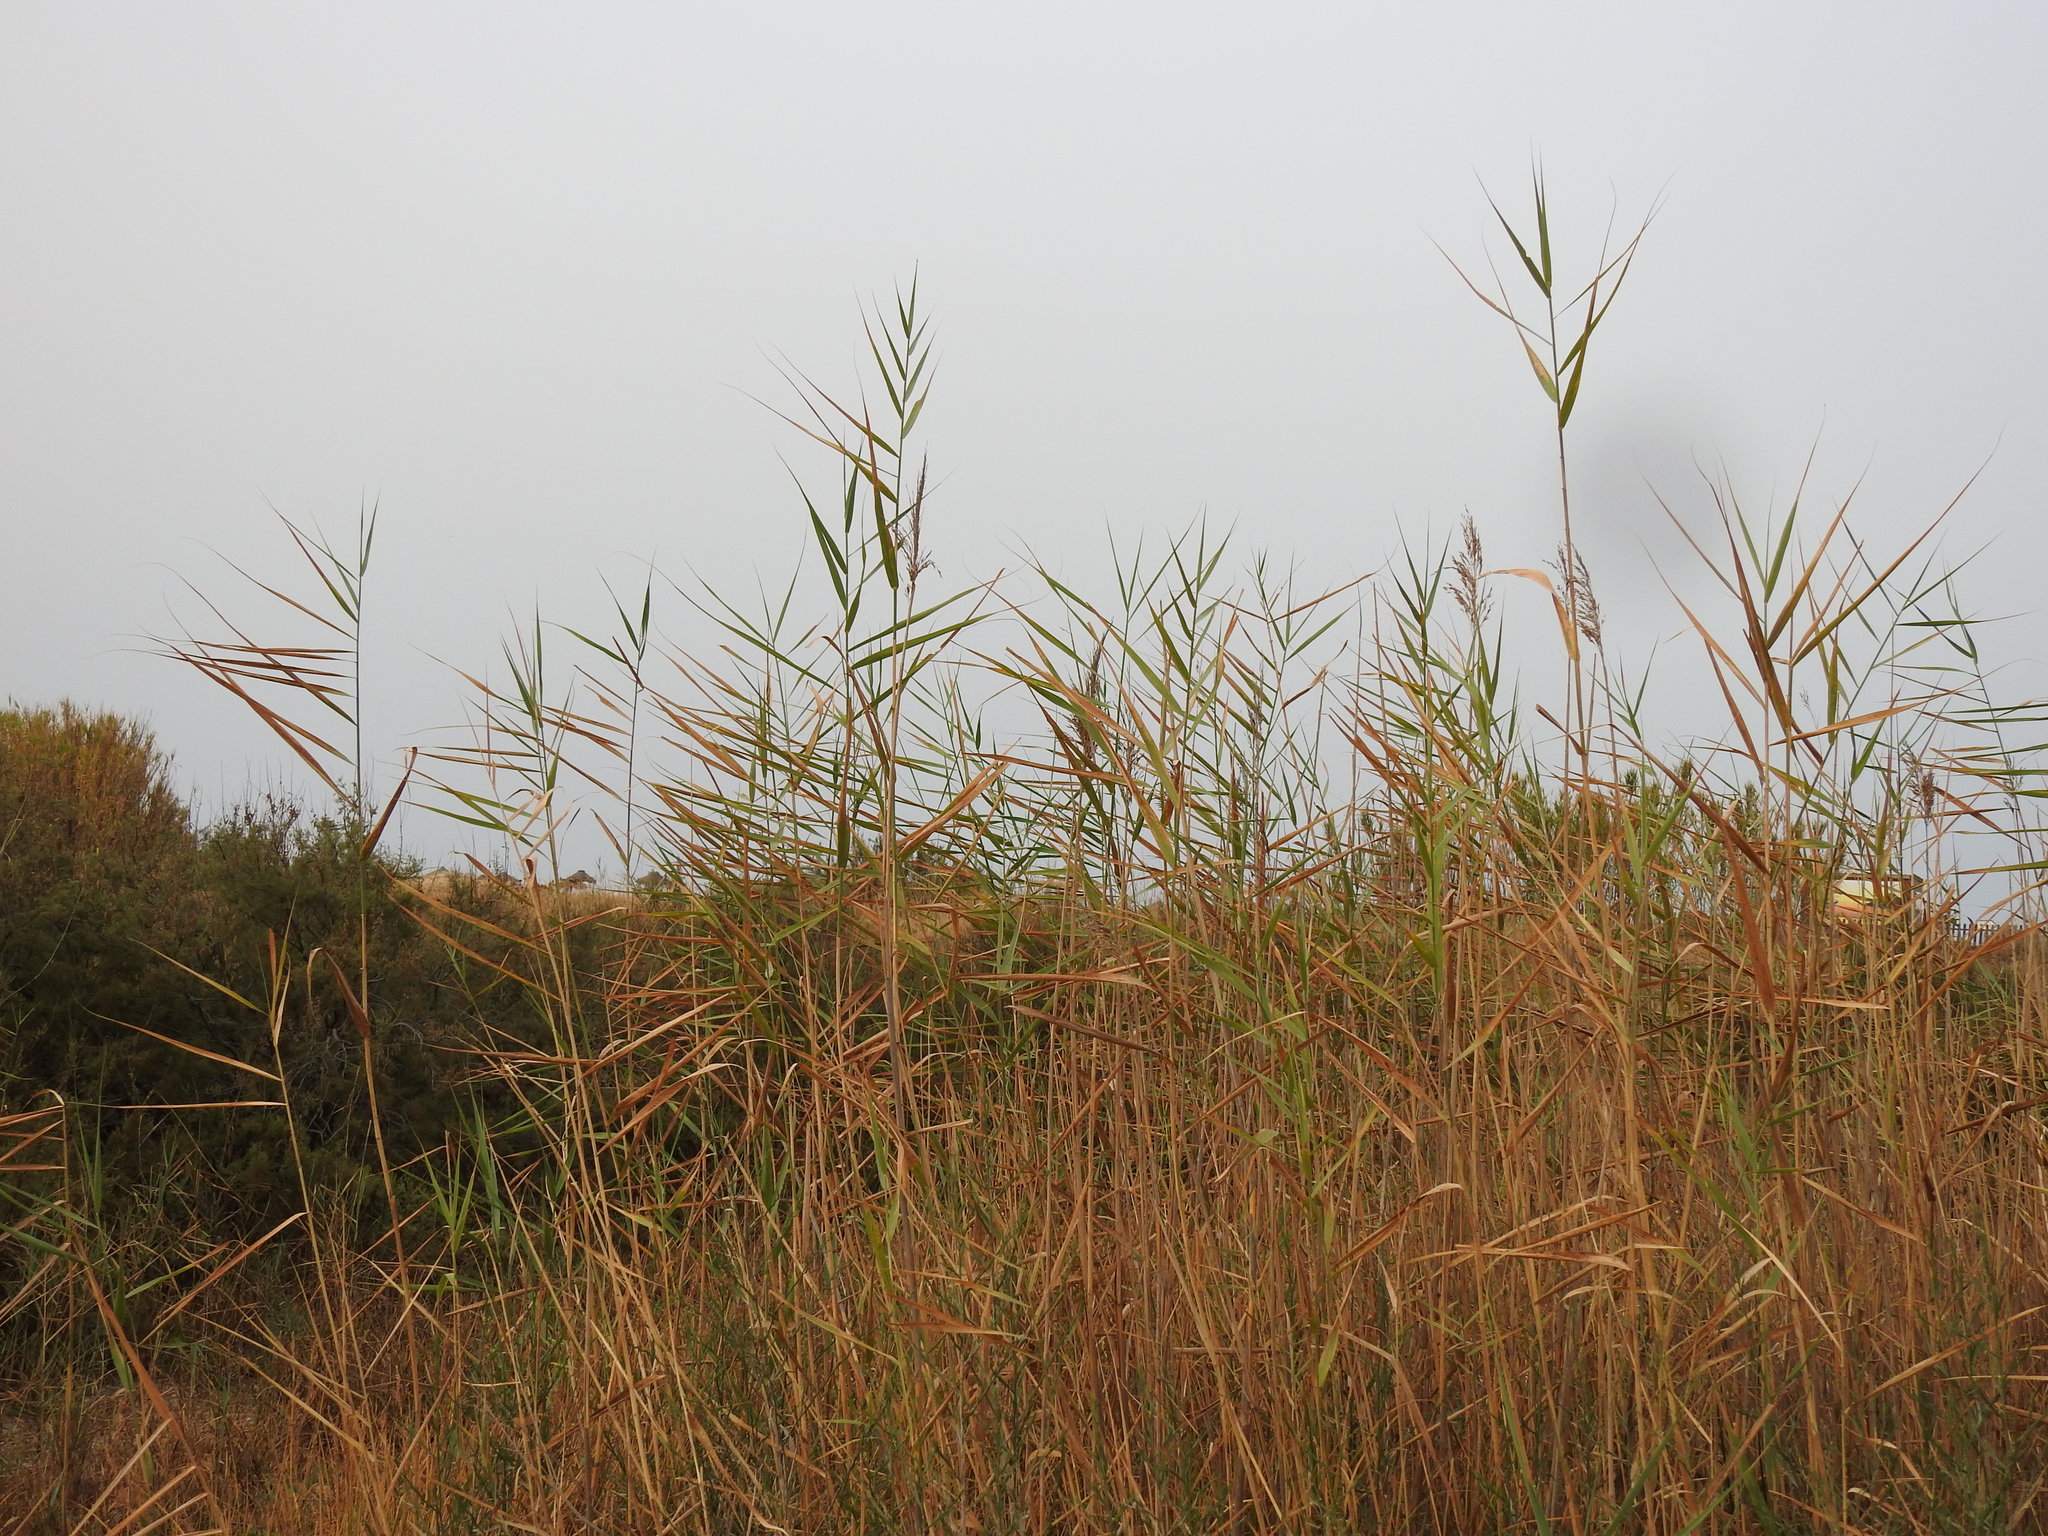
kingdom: Plantae
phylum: Tracheophyta
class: Liliopsida
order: Poales
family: Poaceae
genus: Phragmites
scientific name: Phragmites australis
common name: Common reed
